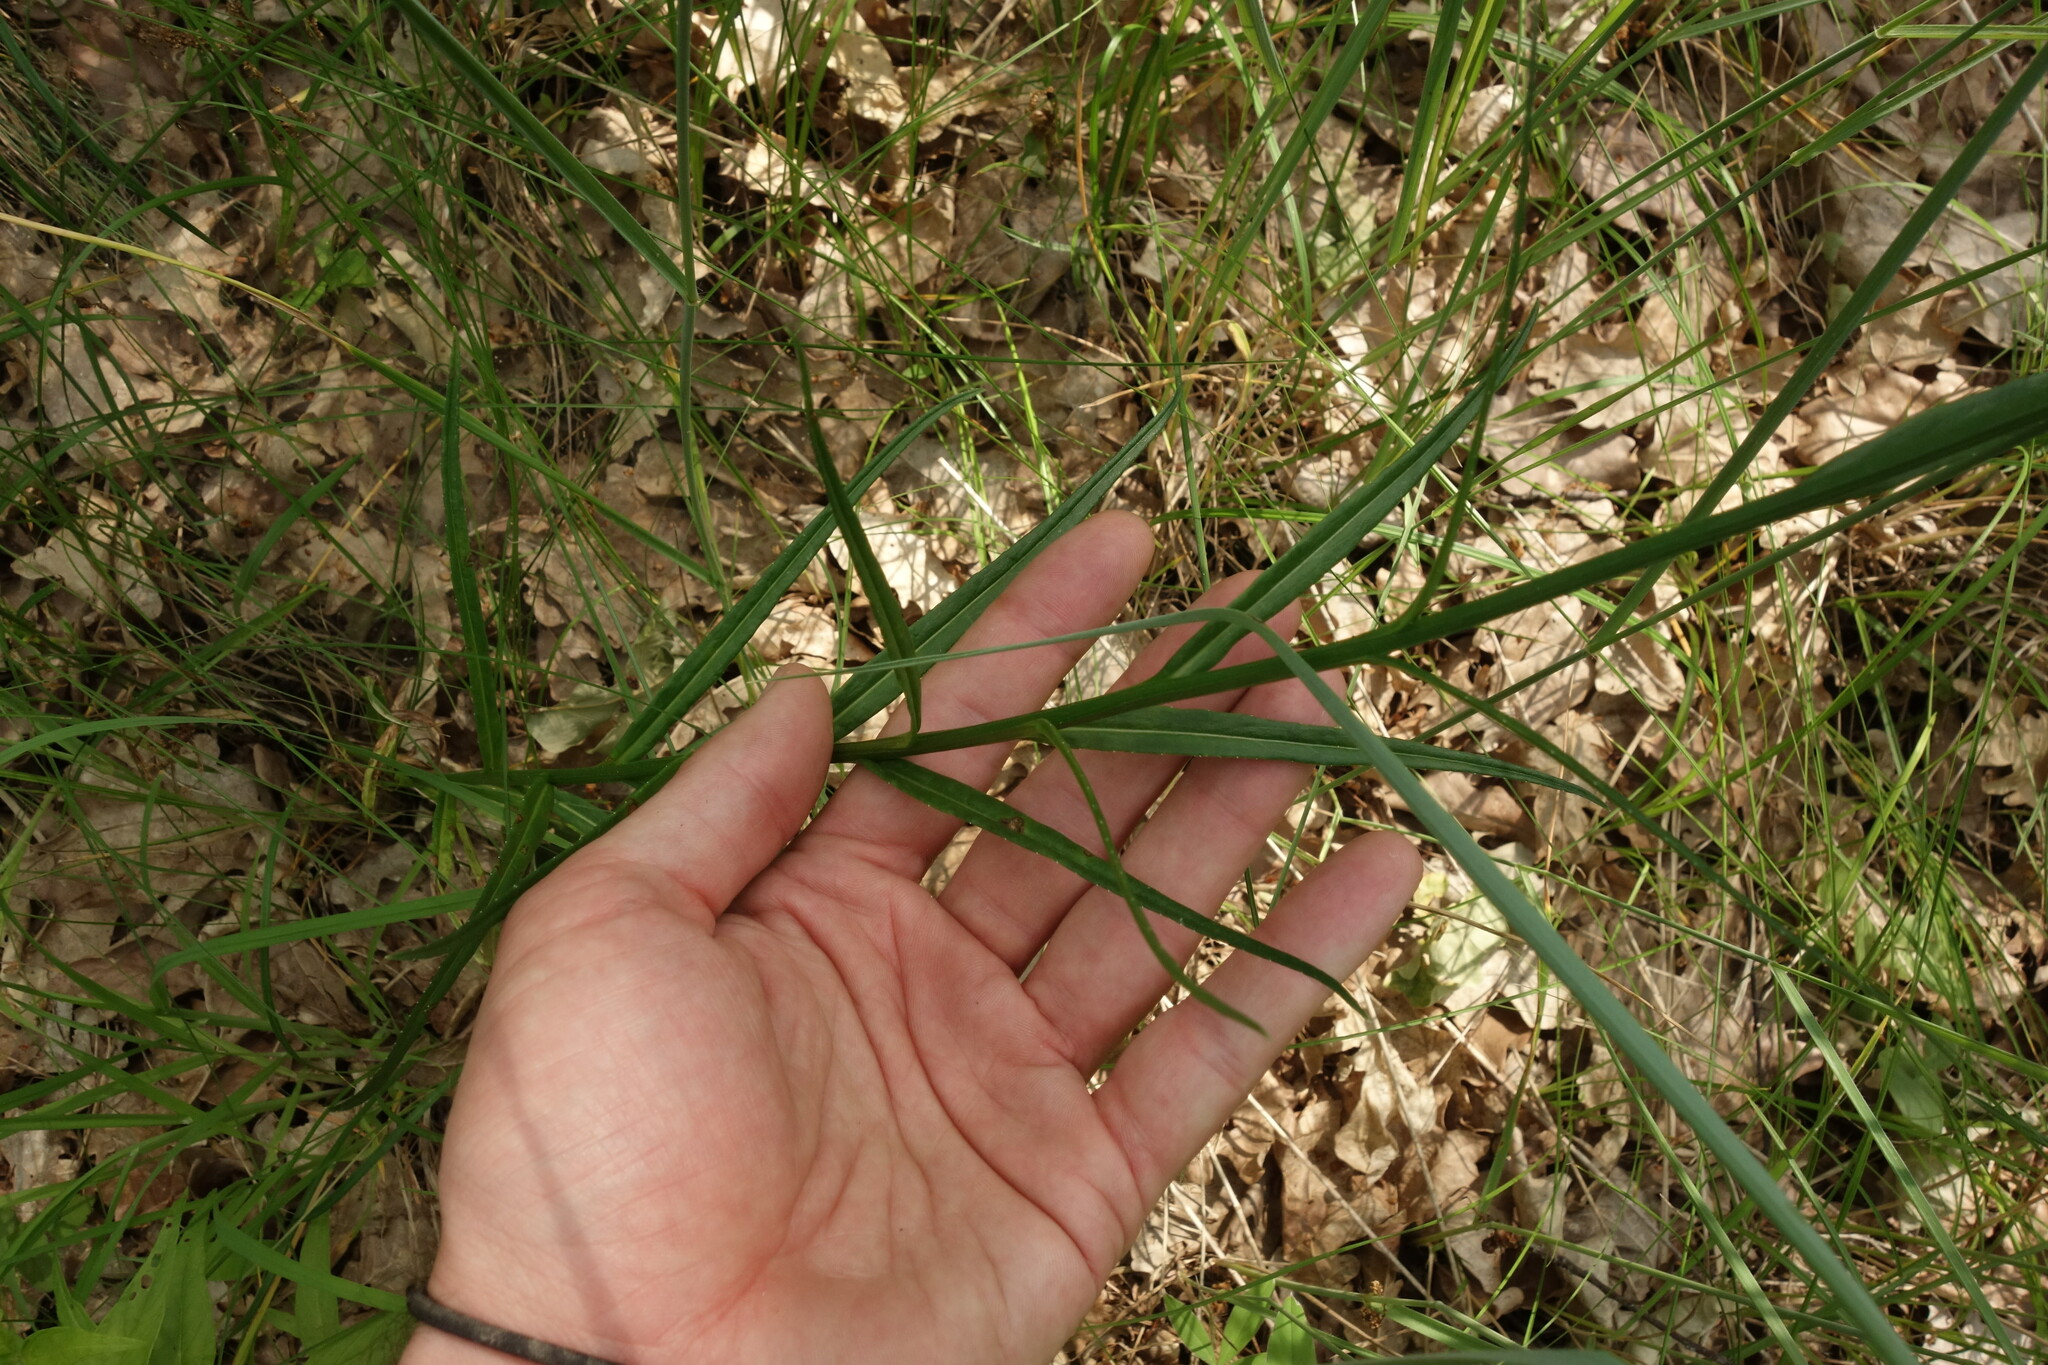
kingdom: Plantae
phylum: Tracheophyta
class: Magnoliopsida
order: Asterales
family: Campanulaceae
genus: Campanula
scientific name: Campanula persicifolia
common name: Peach-leaved bellflower
